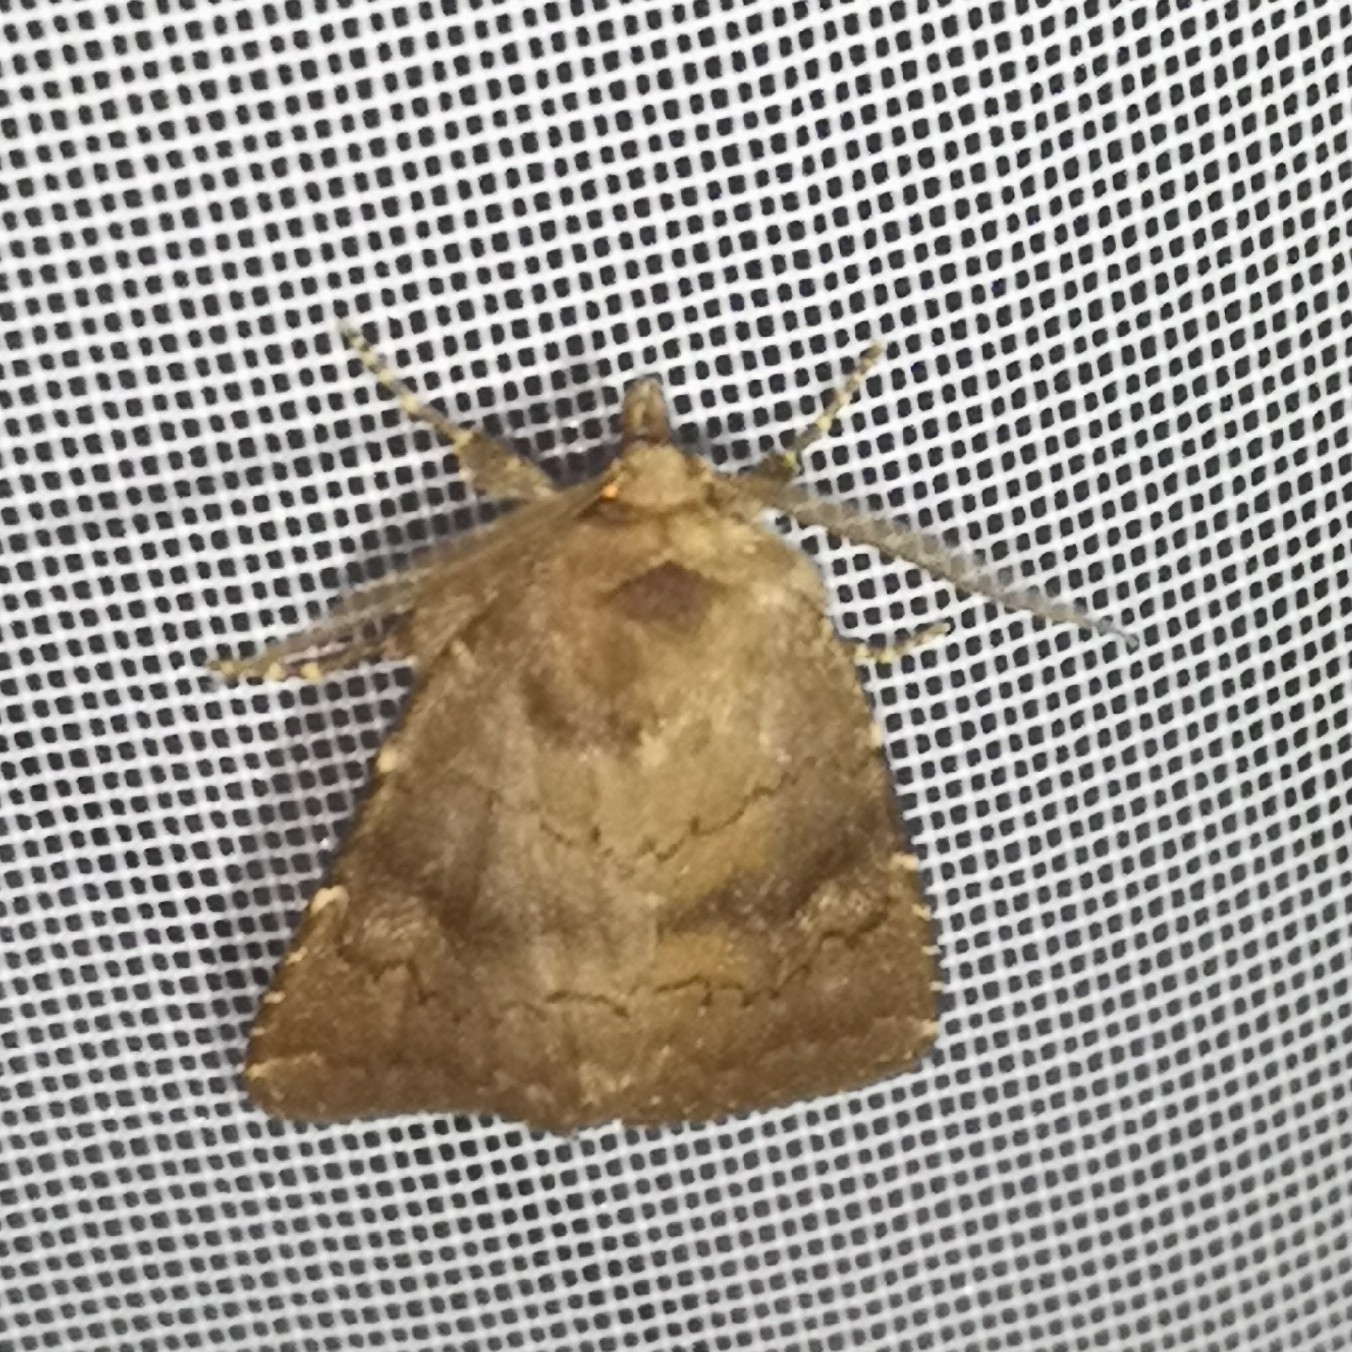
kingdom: Animalia
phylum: Arthropoda
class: Insecta
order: Lepidoptera
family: Noctuidae
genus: Charanyca
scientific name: Charanyca ferruginea
